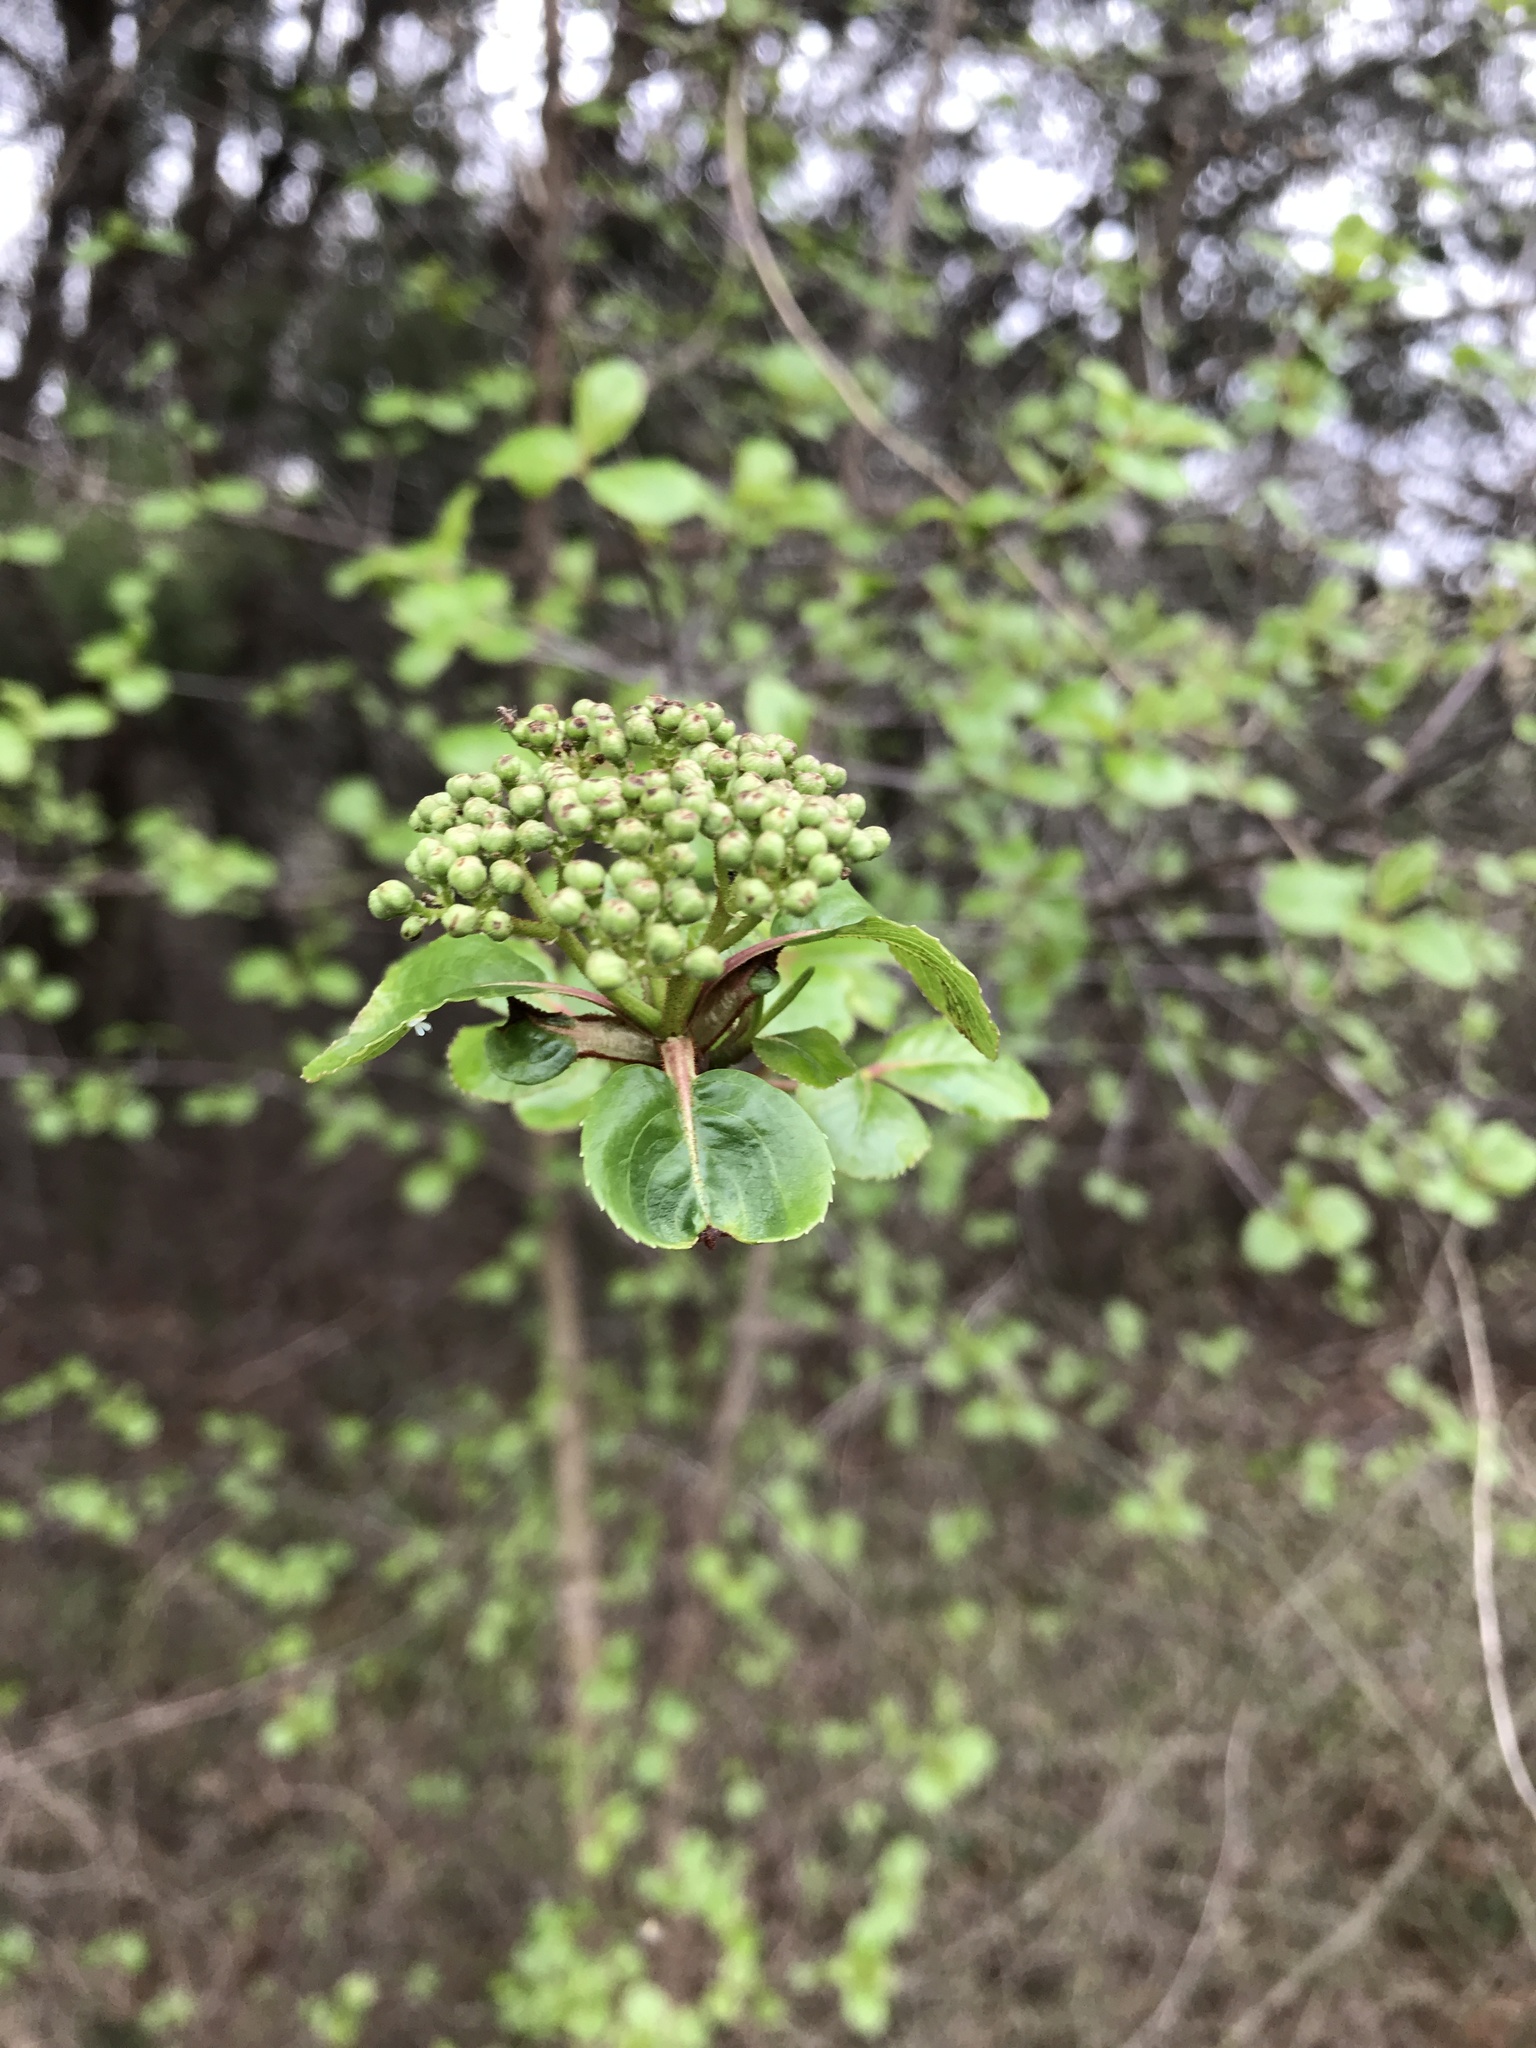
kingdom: Plantae
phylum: Tracheophyta
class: Magnoliopsida
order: Dipsacales
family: Viburnaceae
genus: Viburnum
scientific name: Viburnum rufidulum
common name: Blue haw
